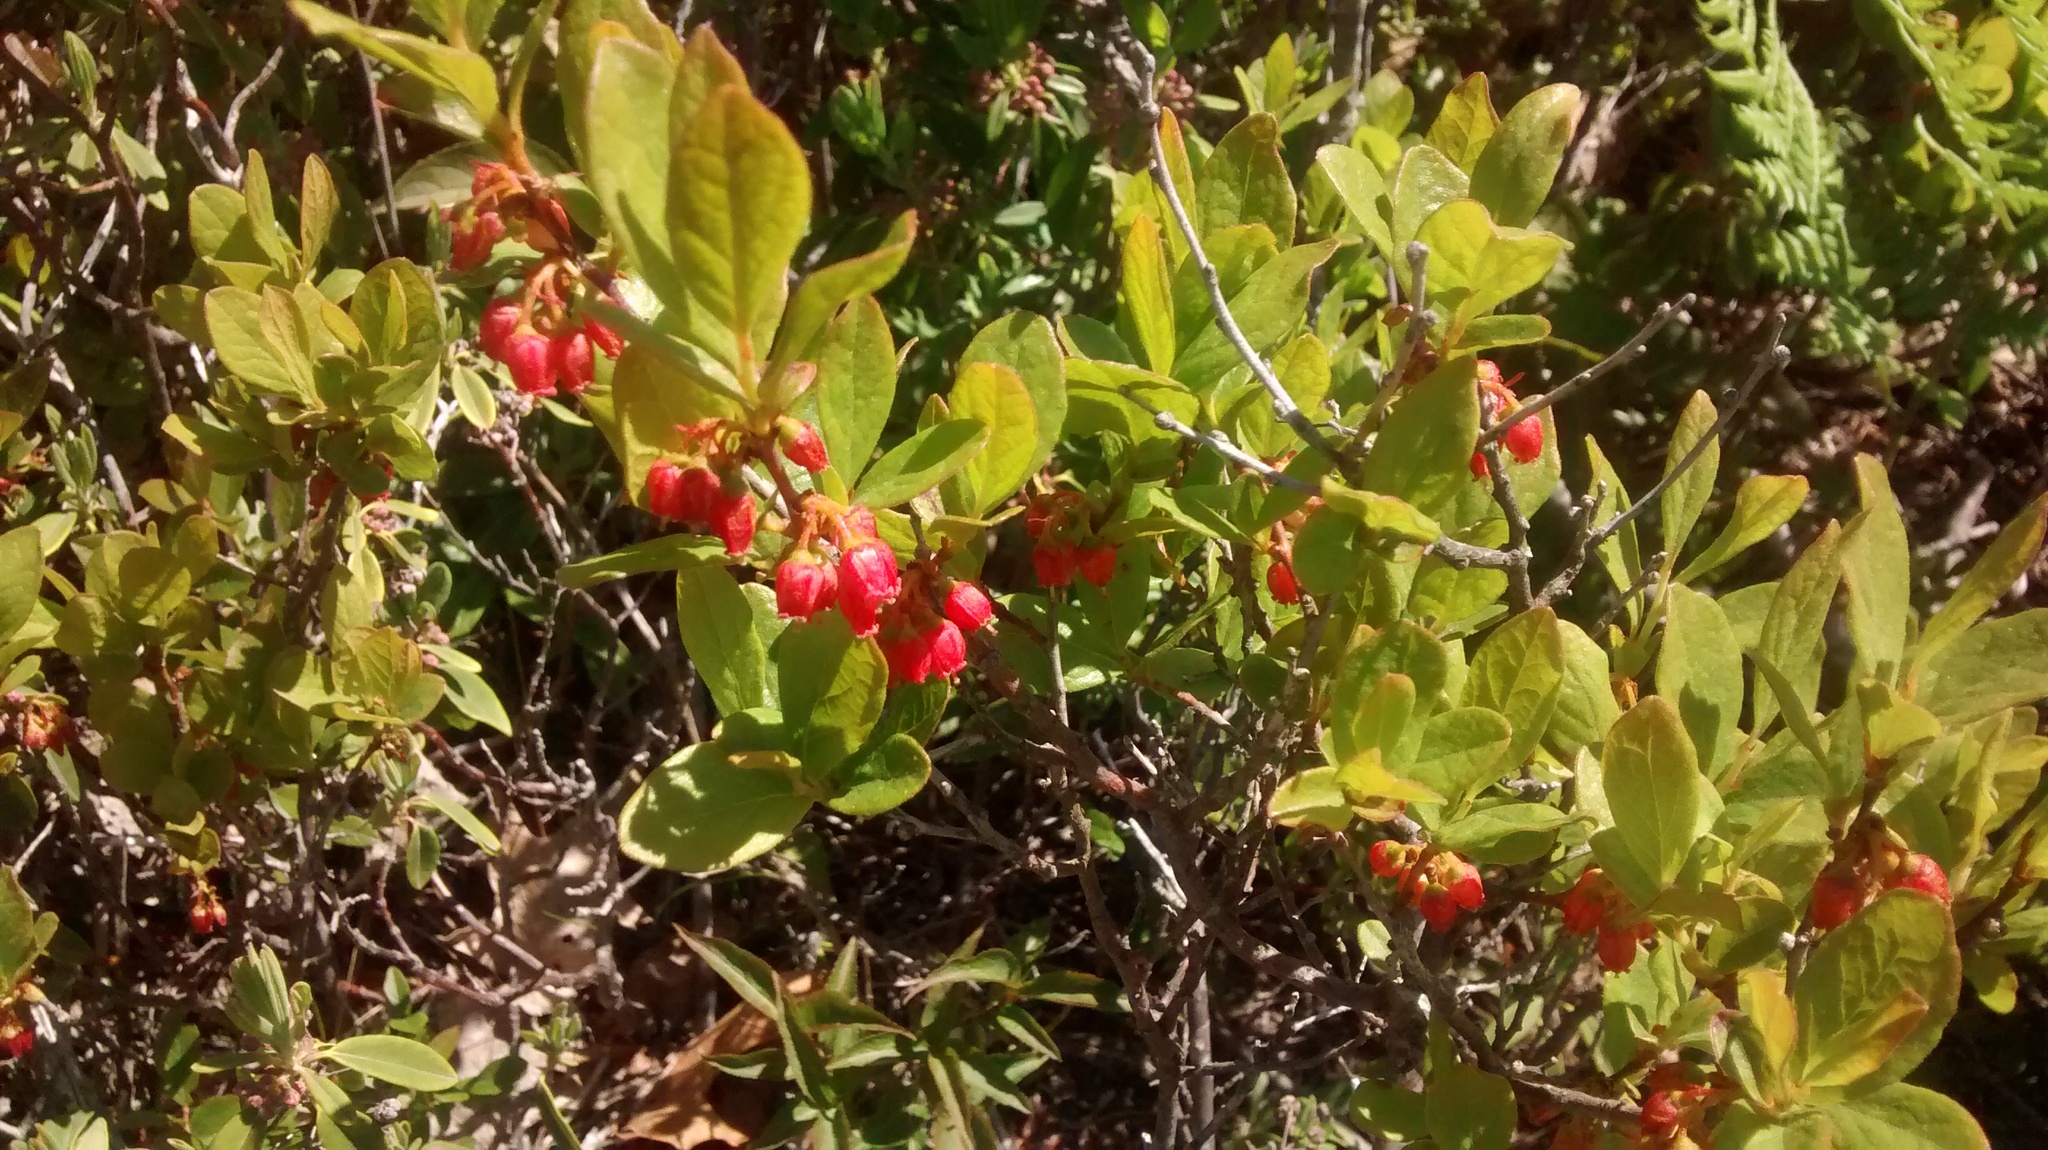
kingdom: Plantae
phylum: Tracheophyta
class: Magnoliopsida
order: Ericales
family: Ericaceae
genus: Gaylussacia
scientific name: Gaylussacia baccata
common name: Black huckleberry
